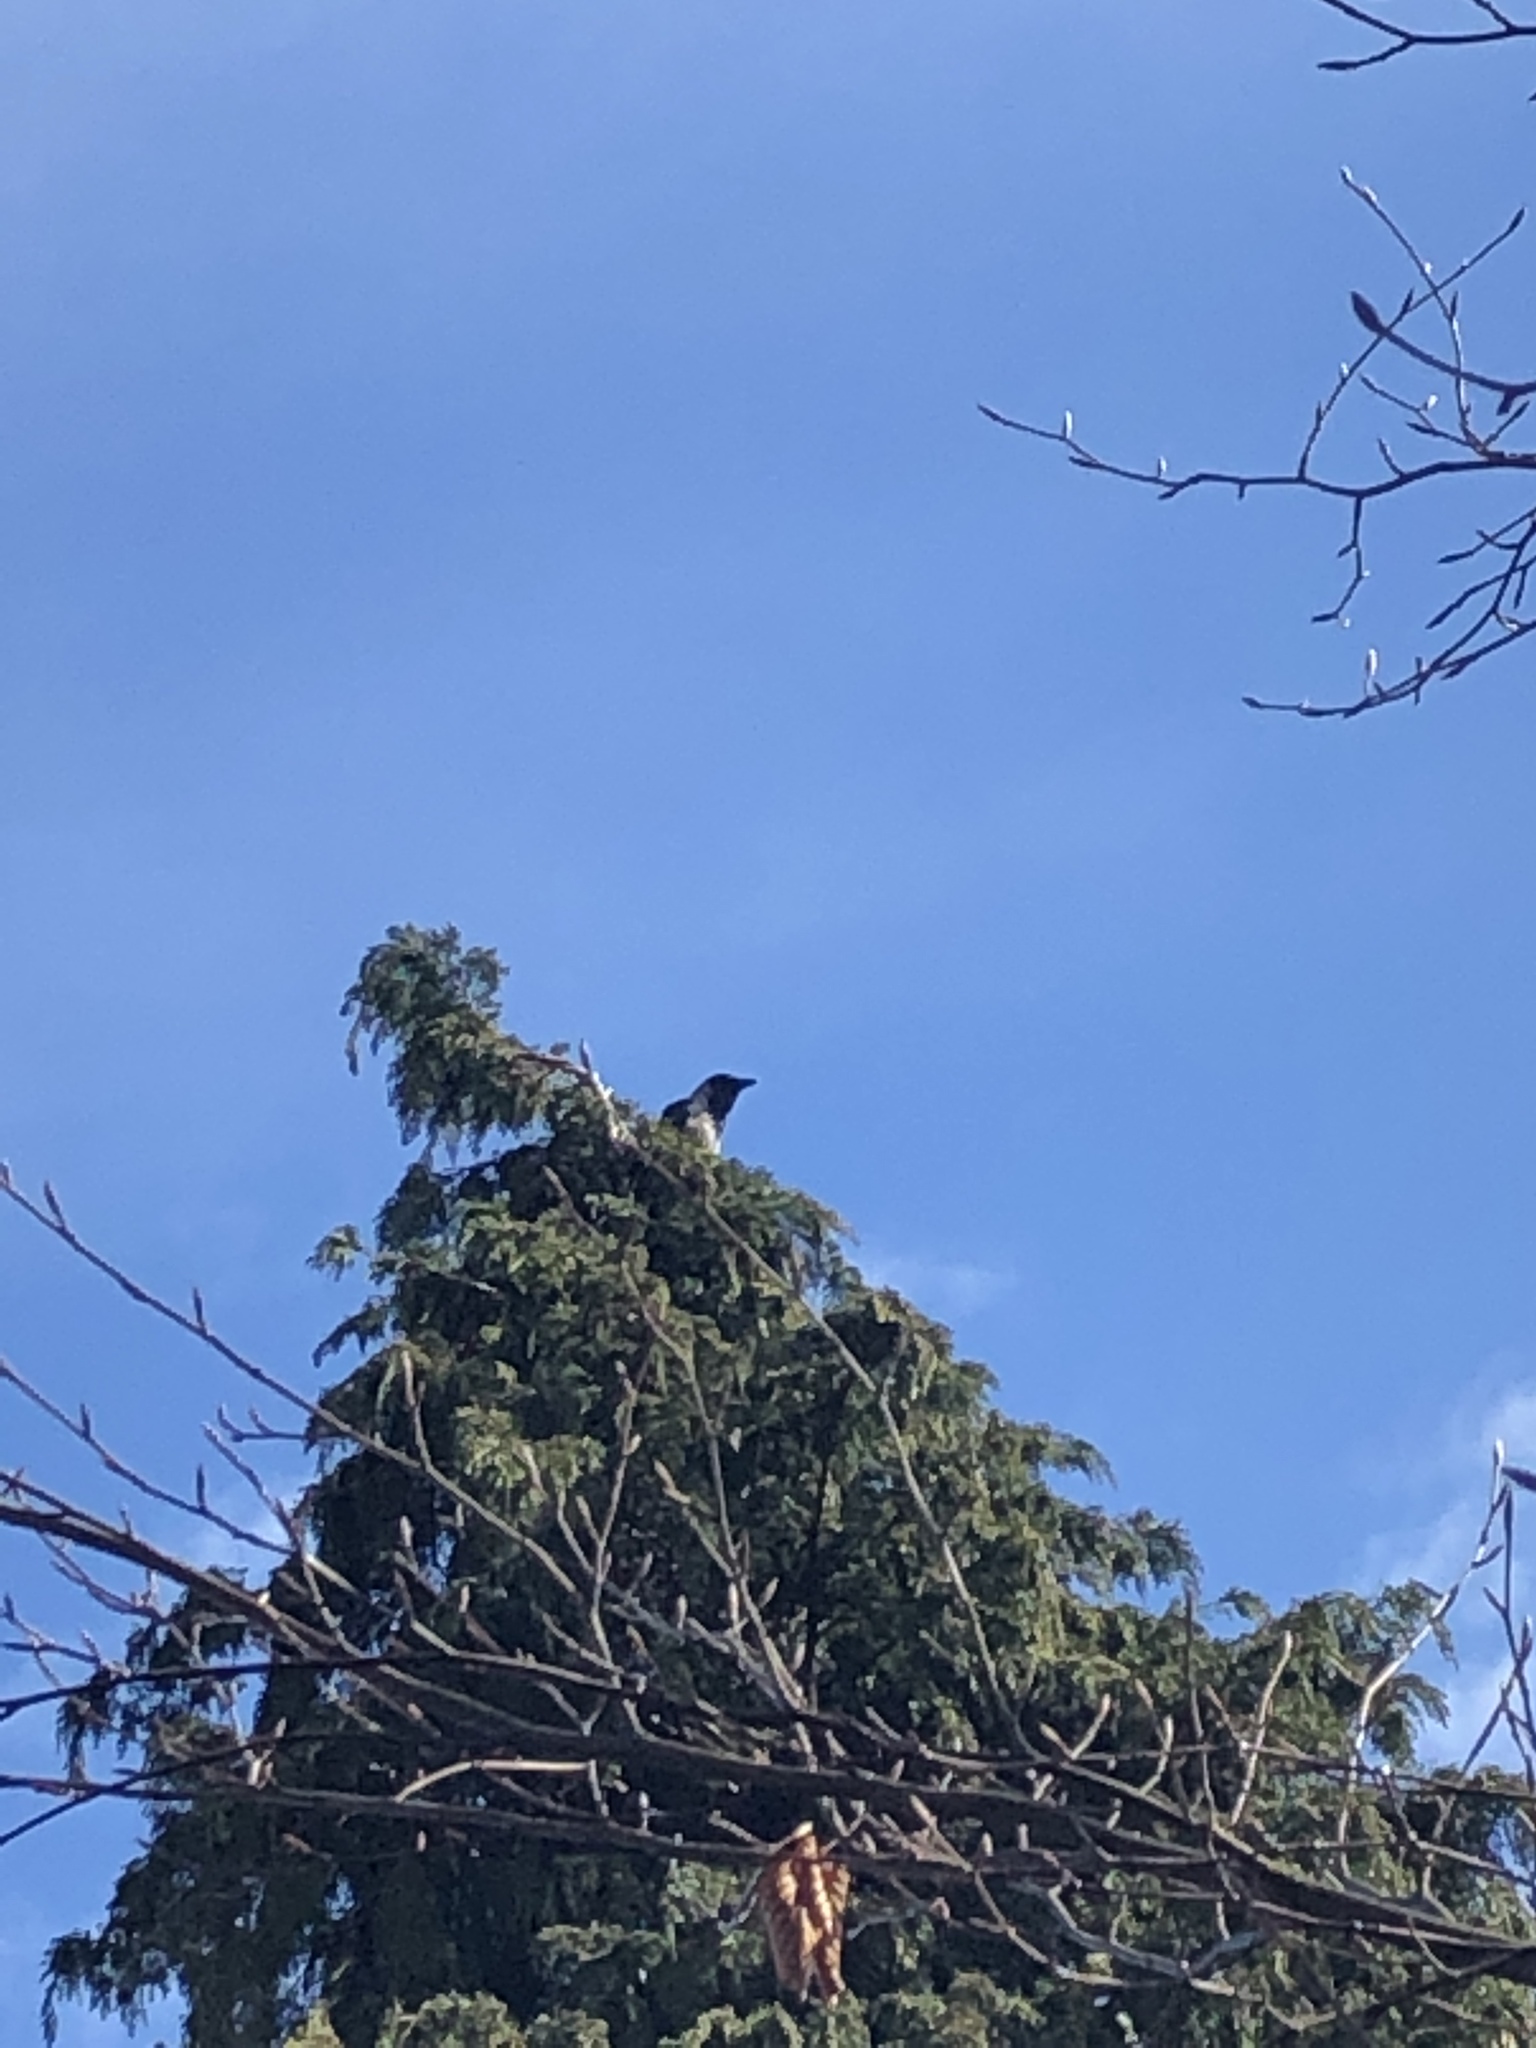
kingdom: Animalia
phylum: Chordata
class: Aves
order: Passeriformes
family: Corvidae
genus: Corvus
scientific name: Corvus cornix
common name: Hooded crow
